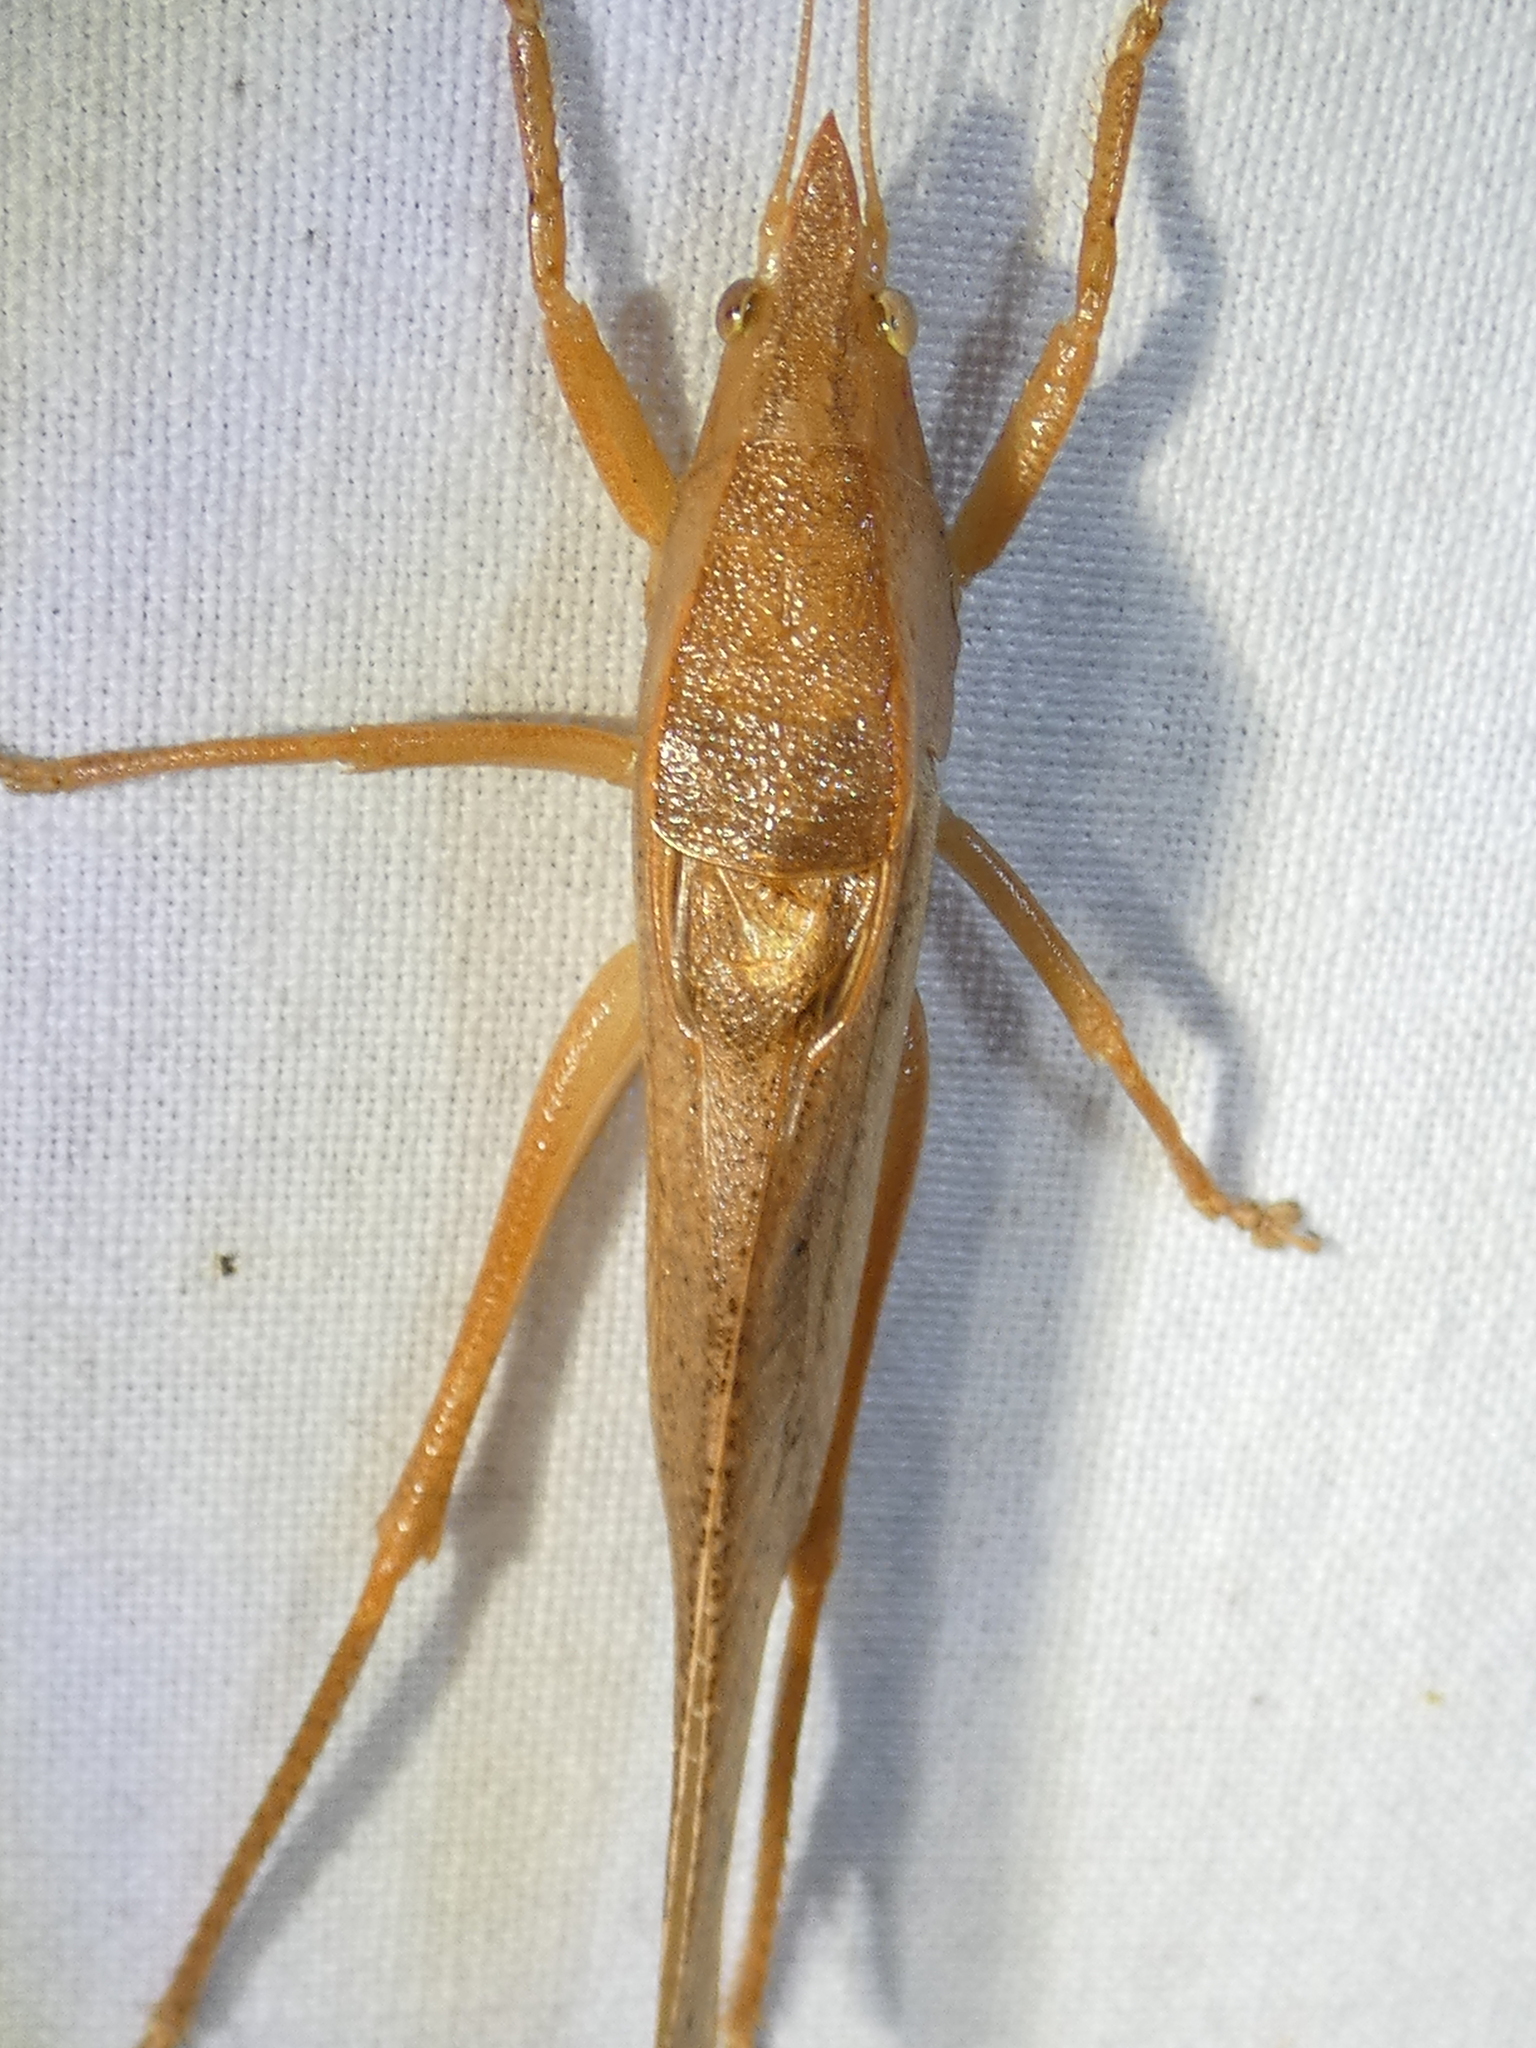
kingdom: Animalia
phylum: Arthropoda
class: Insecta
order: Orthoptera
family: Tettigoniidae
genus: Pyrgocorypha
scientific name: Pyrgocorypha uncinata
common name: Hook-faced conehead
